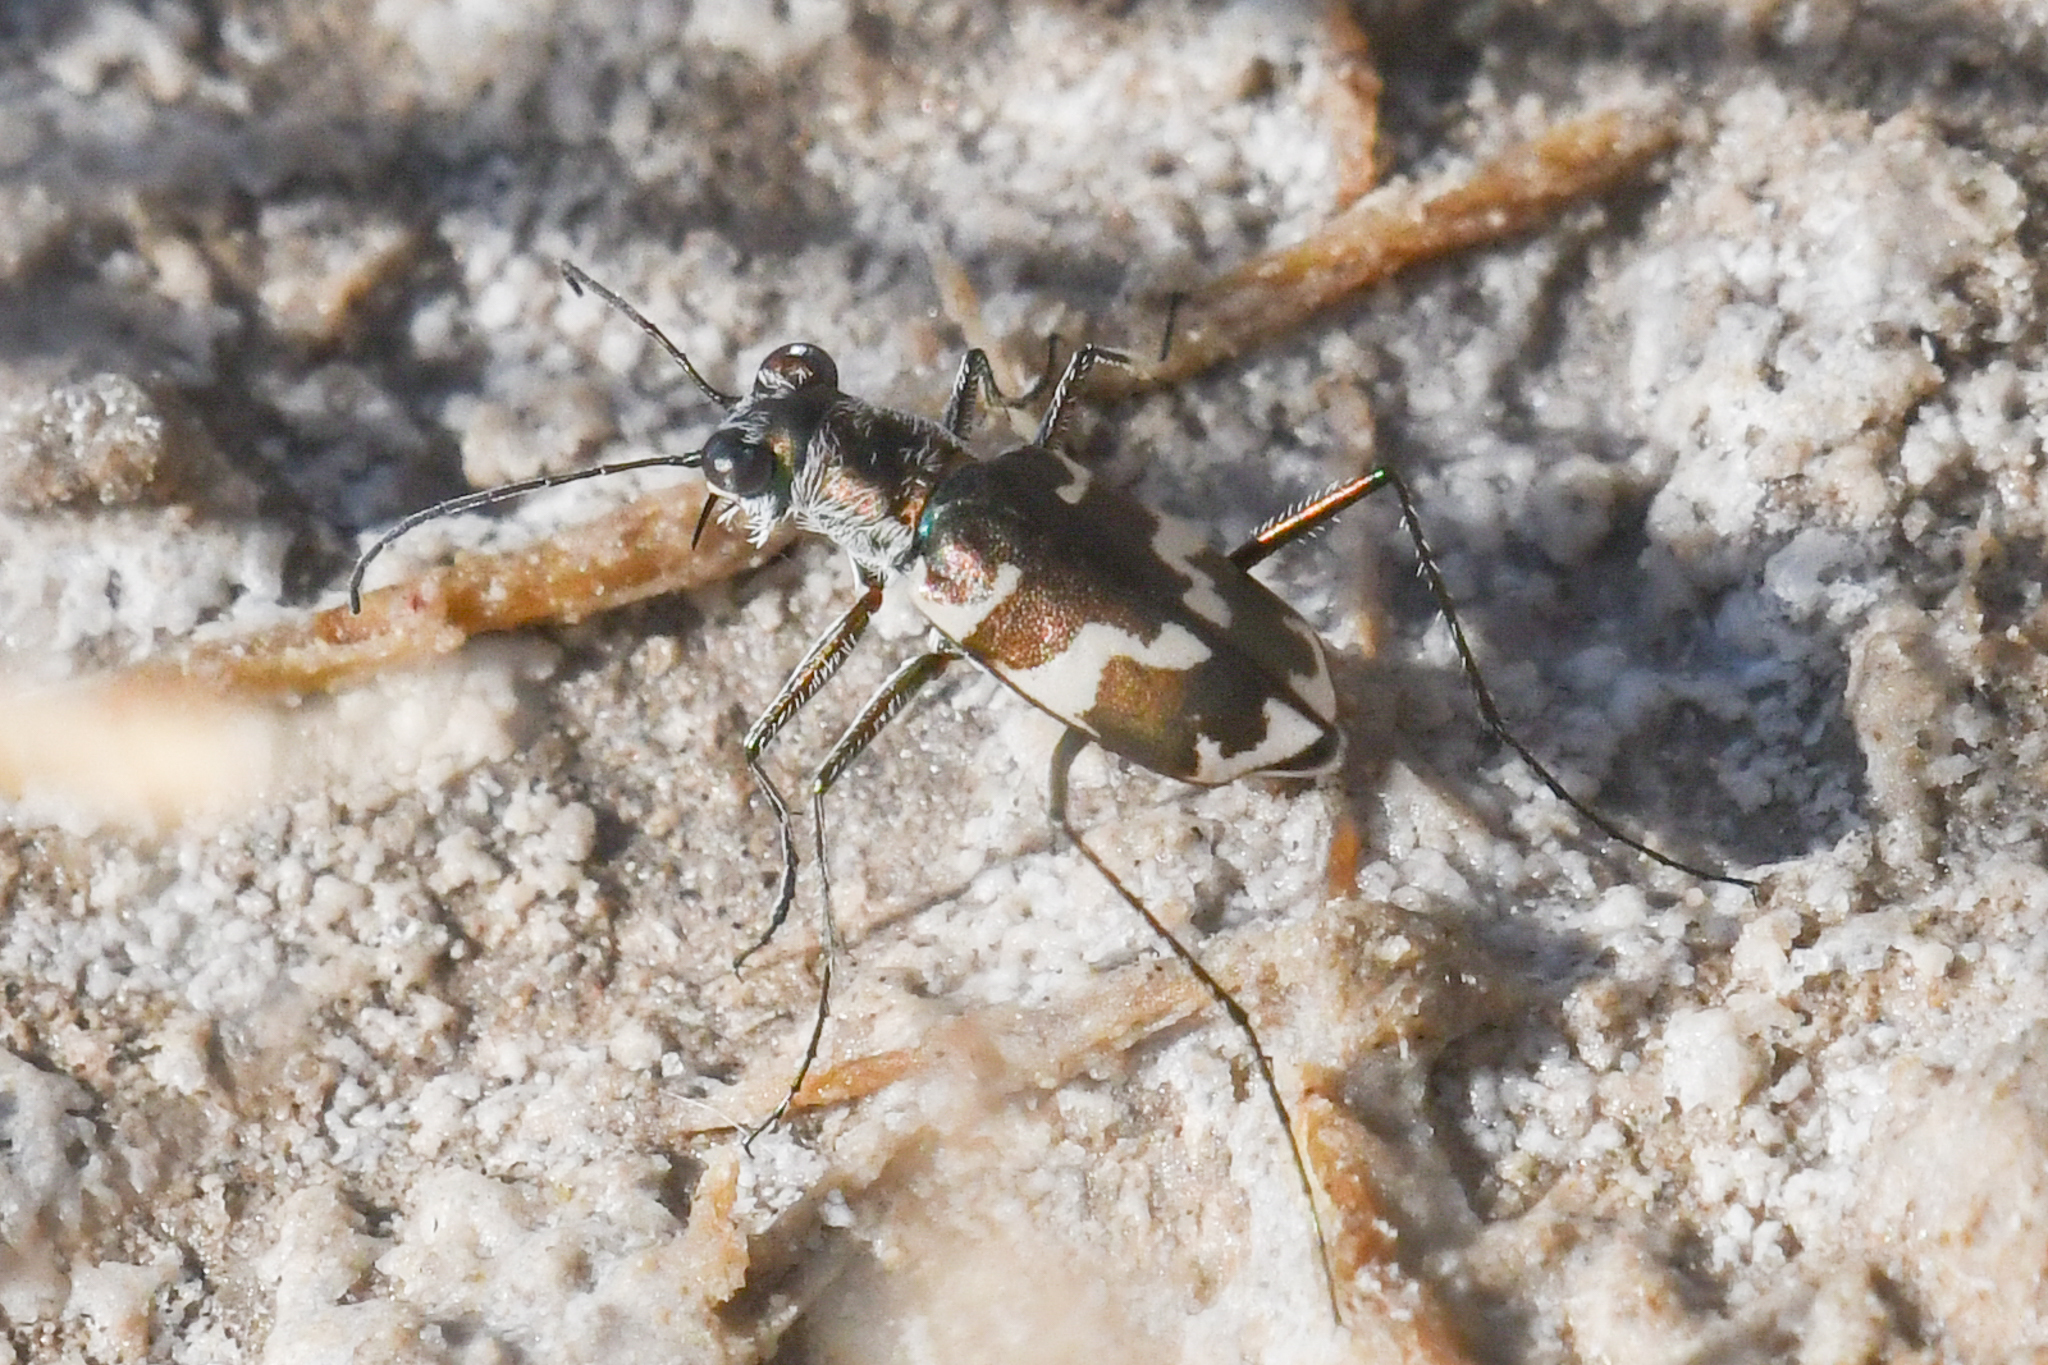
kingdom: Animalia
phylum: Arthropoda
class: Insecta
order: Coleoptera
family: Carabidae
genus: Ellipsoptera
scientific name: Ellipsoptera nevadica
